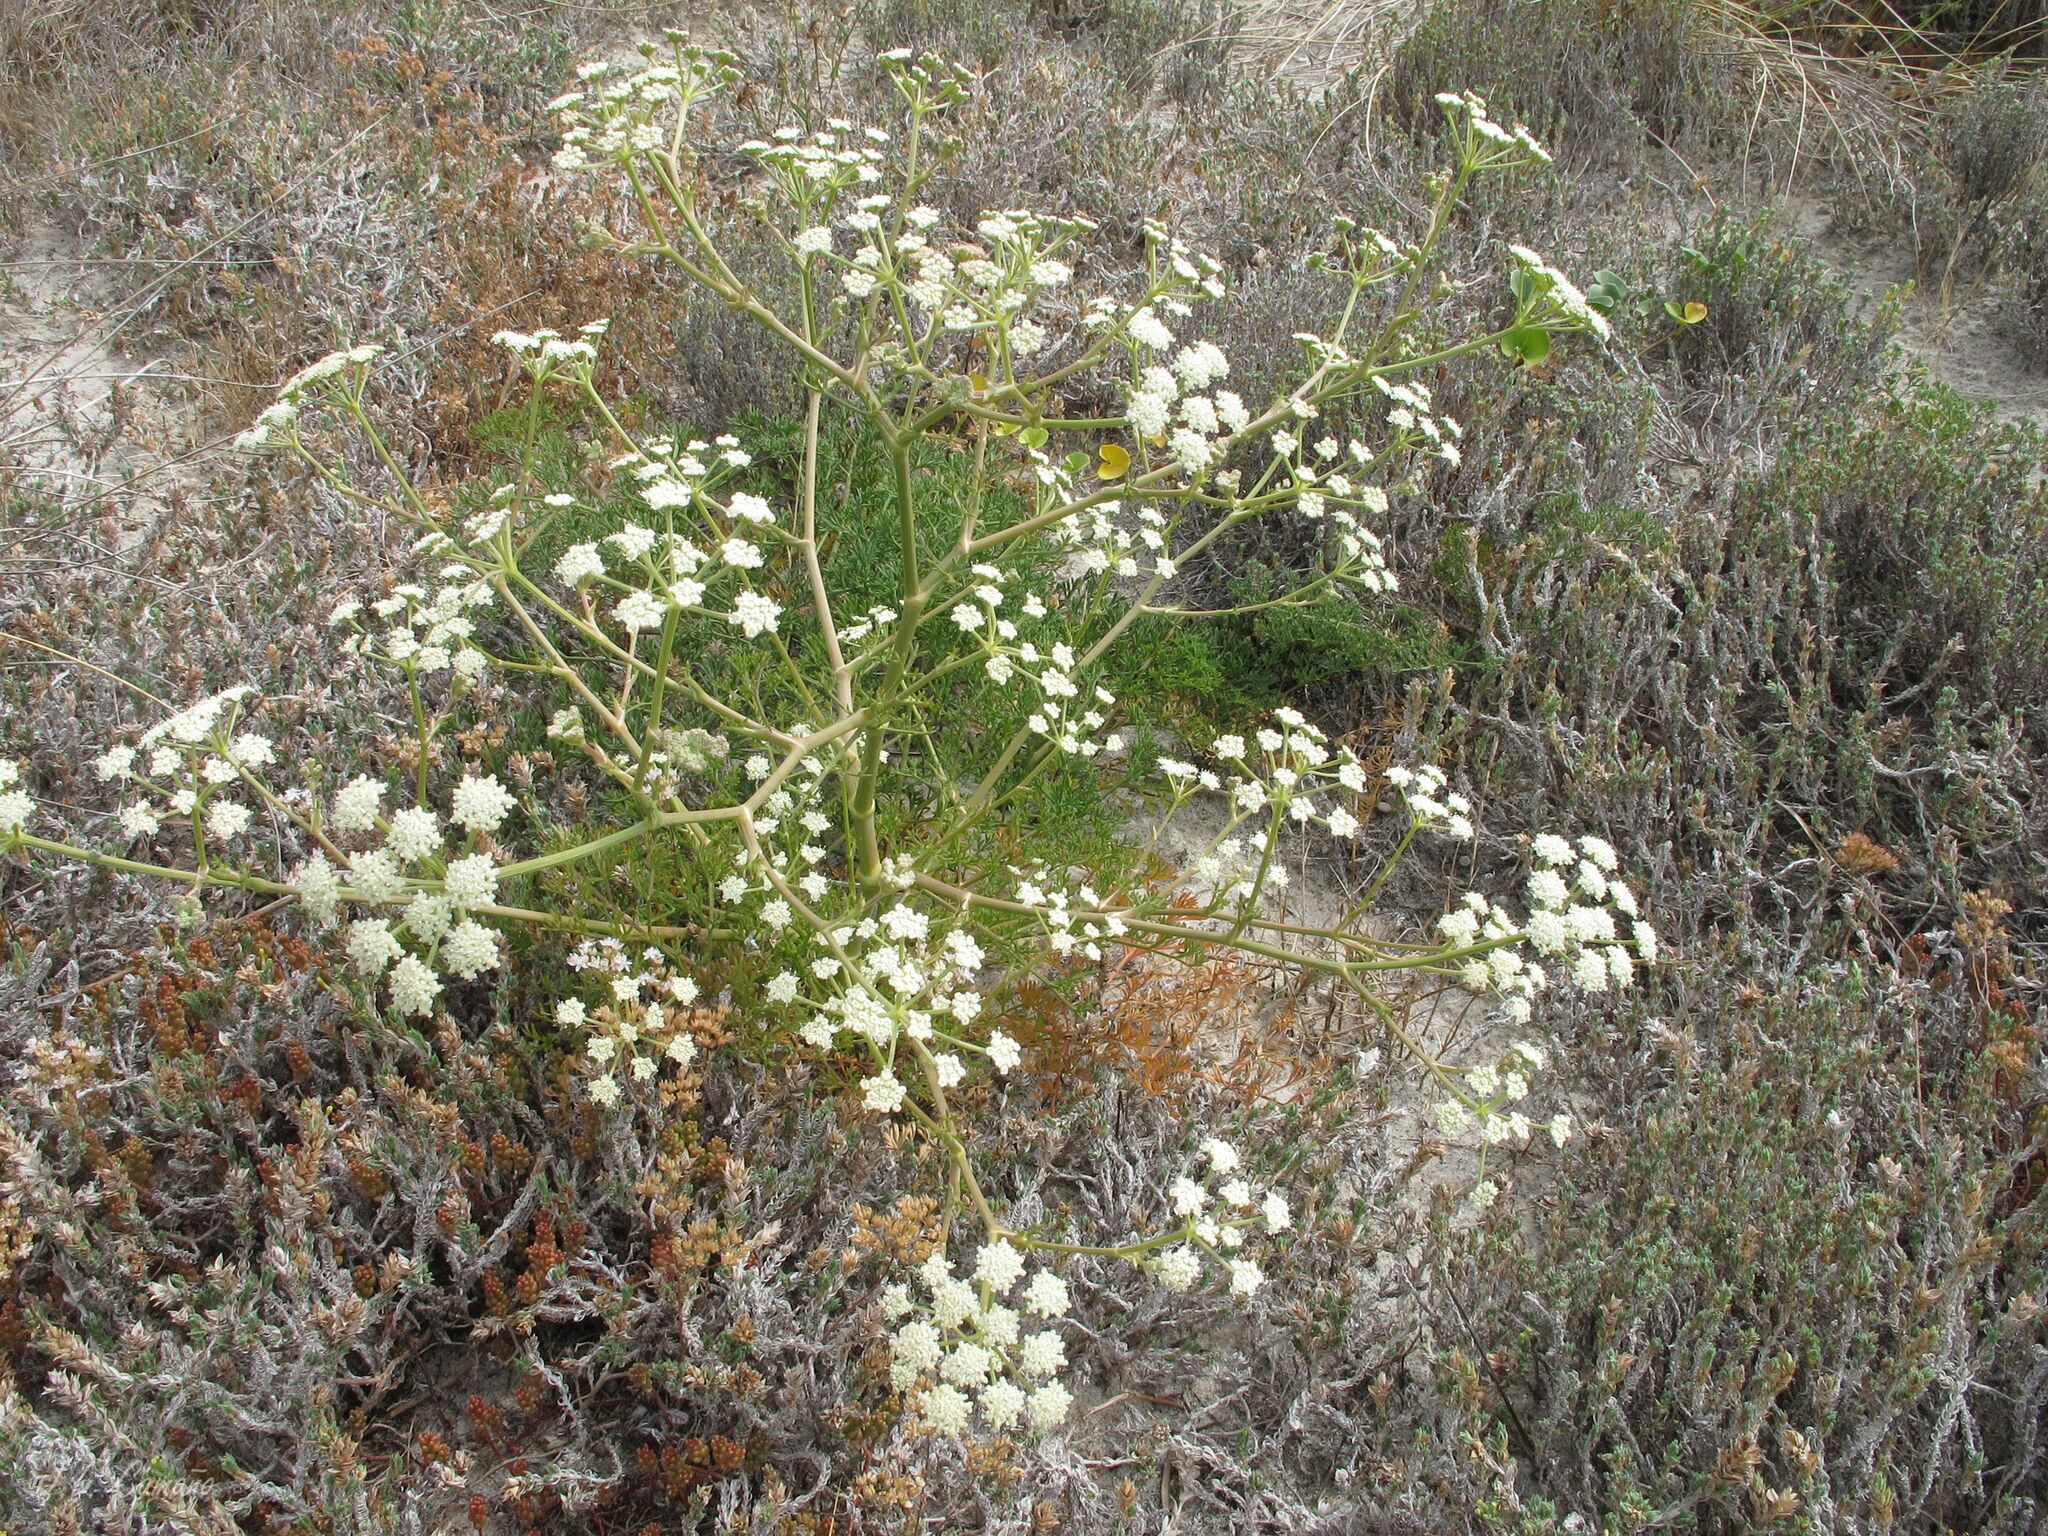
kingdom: Plantae
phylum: Tracheophyta
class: Magnoliopsida
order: Apiales
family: Apiaceae
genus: Seseli
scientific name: Seseli tortuosum
